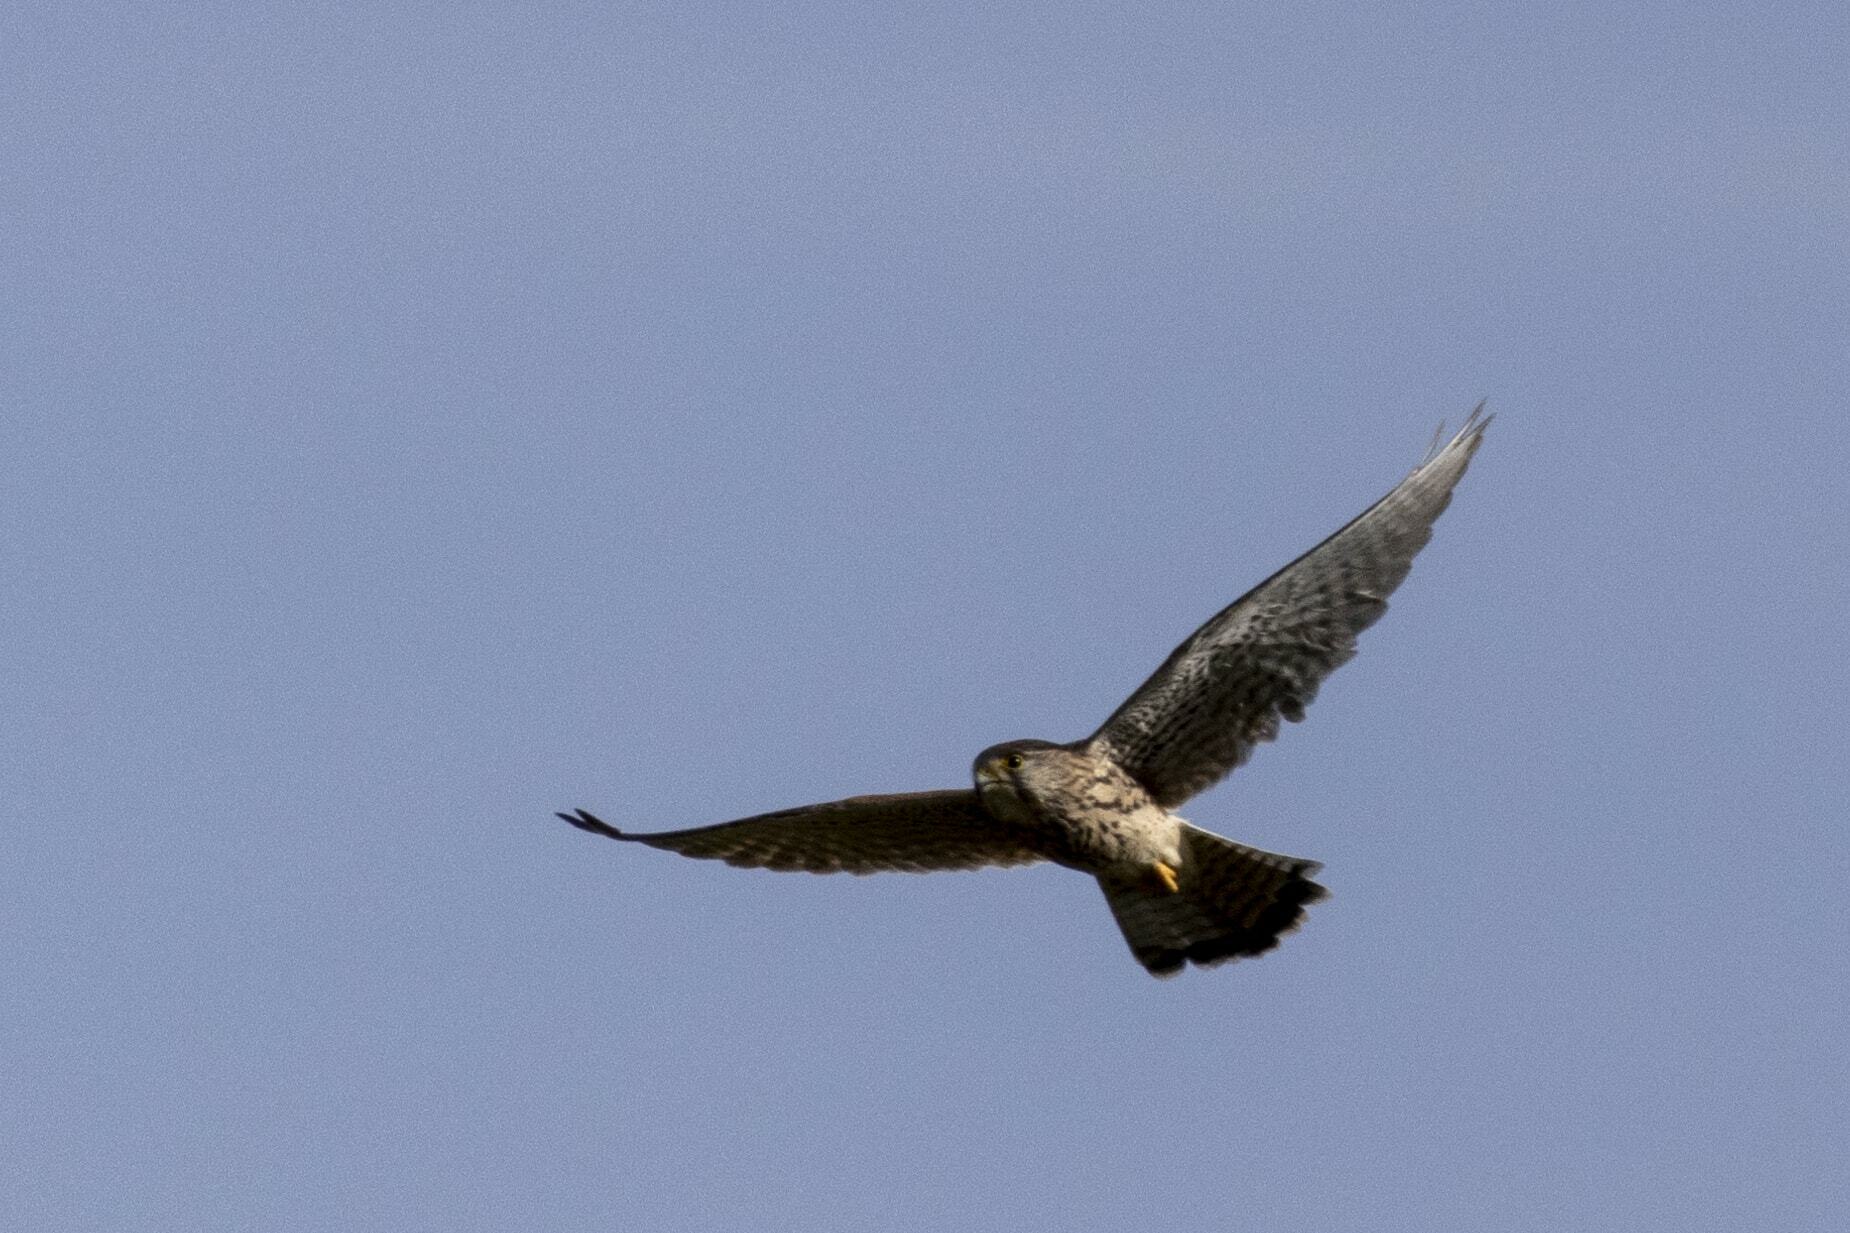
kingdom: Animalia
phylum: Chordata
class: Aves
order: Falconiformes
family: Falconidae
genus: Falco
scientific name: Falco tinnunculus
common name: Common kestrel
